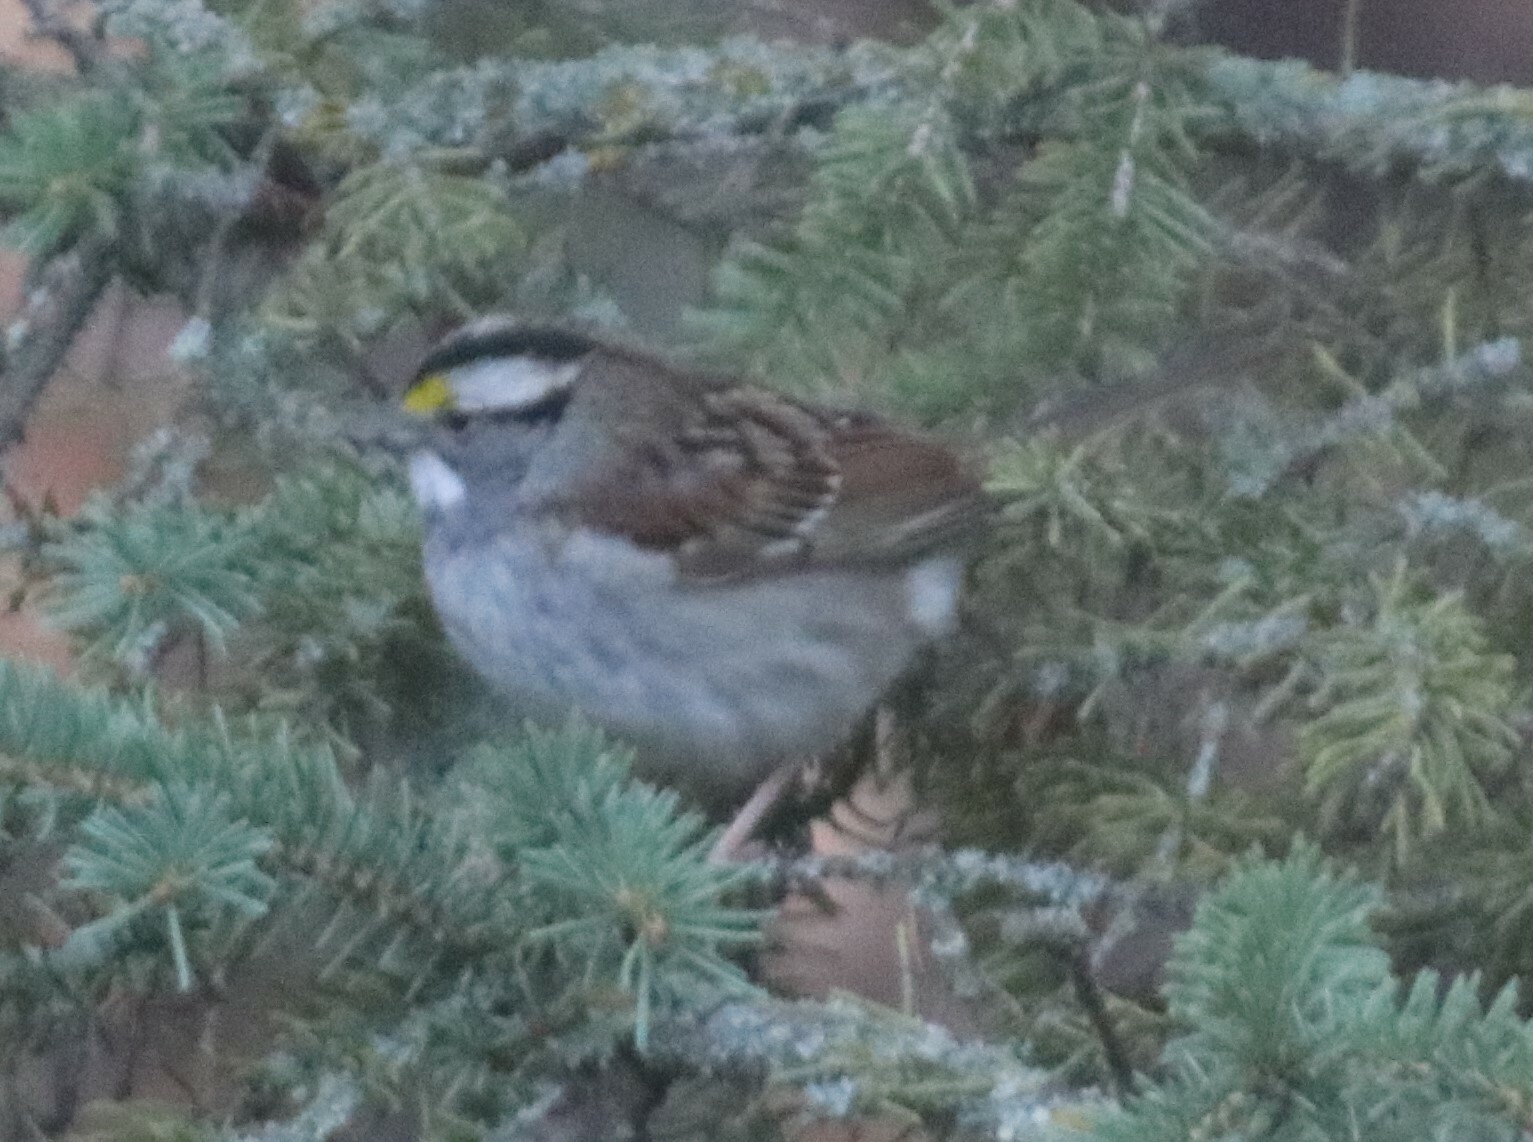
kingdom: Animalia
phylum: Chordata
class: Aves
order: Passeriformes
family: Passerellidae
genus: Zonotrichia
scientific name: Zonotrichia albicollis
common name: White-throated sparrow
